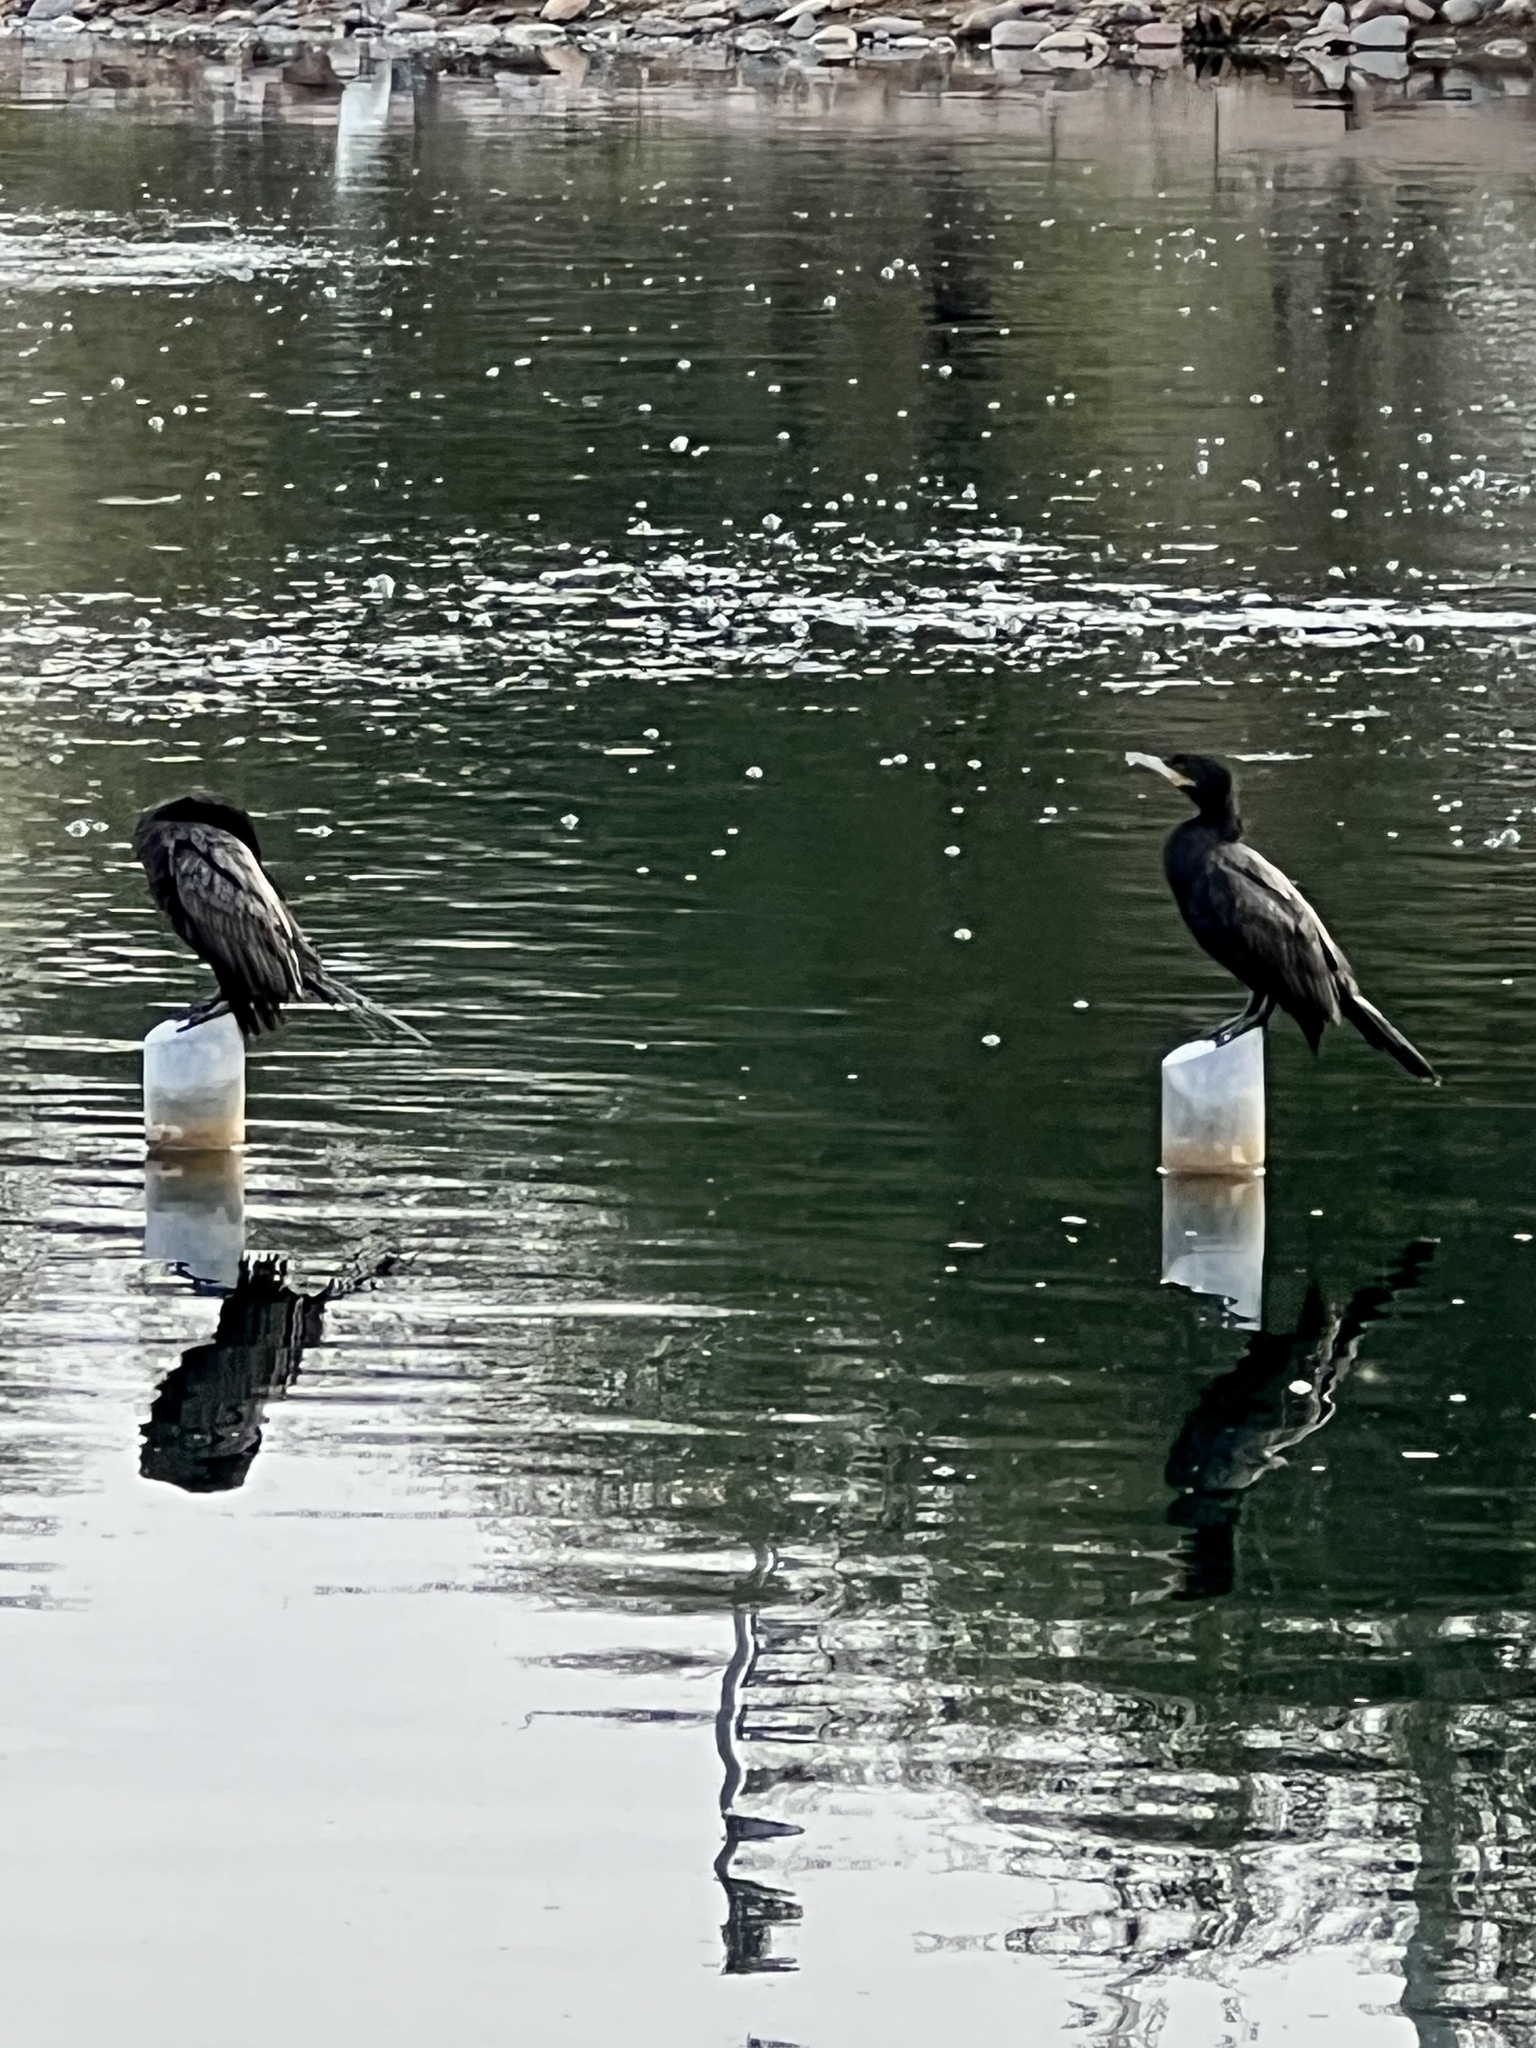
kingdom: Animalia
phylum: Chordata
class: Aves
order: Suliformes
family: Phalacrocoracidae
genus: Phalacrocorax
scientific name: Phalacrocorax brasilianus
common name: Neotropic cormorant
